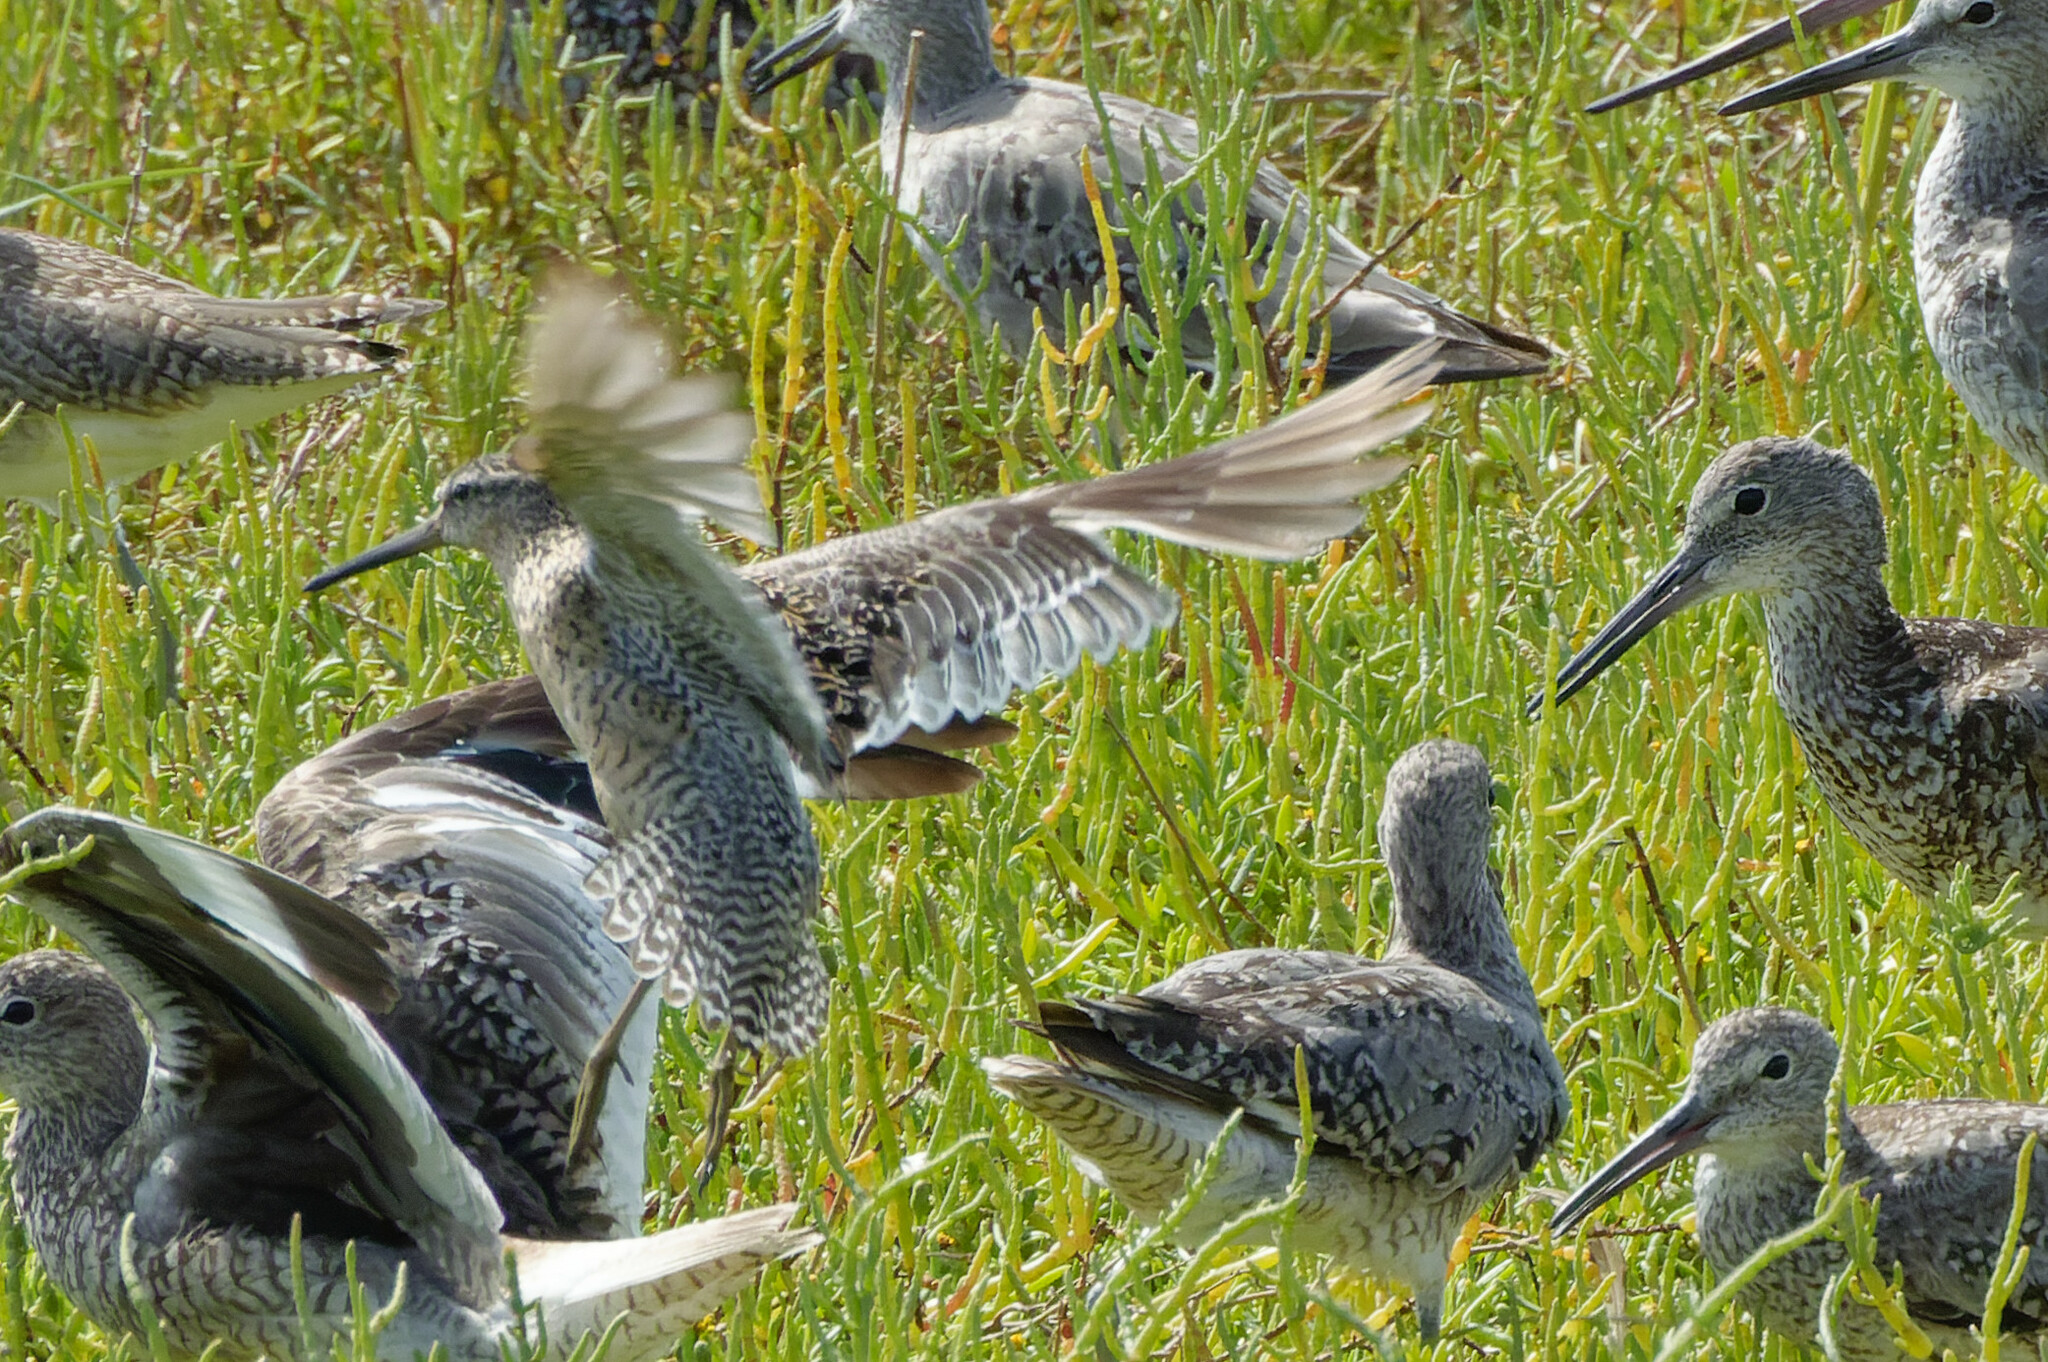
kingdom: Animalia
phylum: Chordata
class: Aves
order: Charadriiformes
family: Scolopacidae
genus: Limnodromus
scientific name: Limnodromus griseus
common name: Short-billed dowitcher
